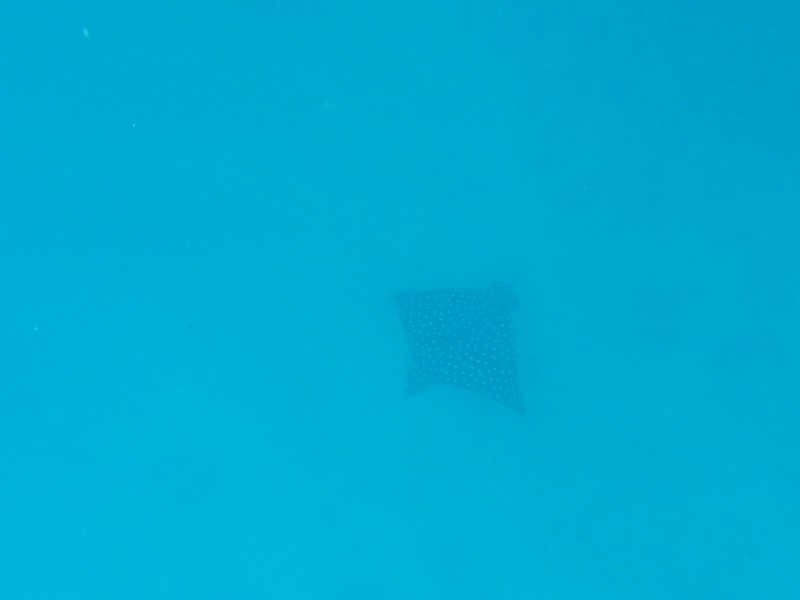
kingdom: Animalia
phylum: Chordata
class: Elasmobranchii
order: Myliobatiformes
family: Myliobatidae
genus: Aetobatus
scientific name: Aetobatus laticeps
